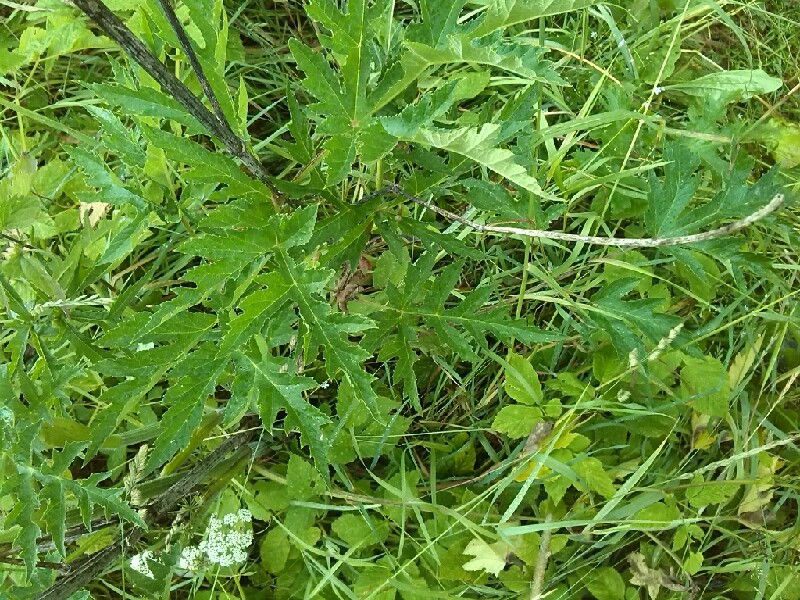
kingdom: Plantae
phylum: Tracheophyta
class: Magnoliopsida
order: Apiales
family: Apiaceae
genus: Heracleum
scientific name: Heracleum sphondylium
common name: Hogweed
